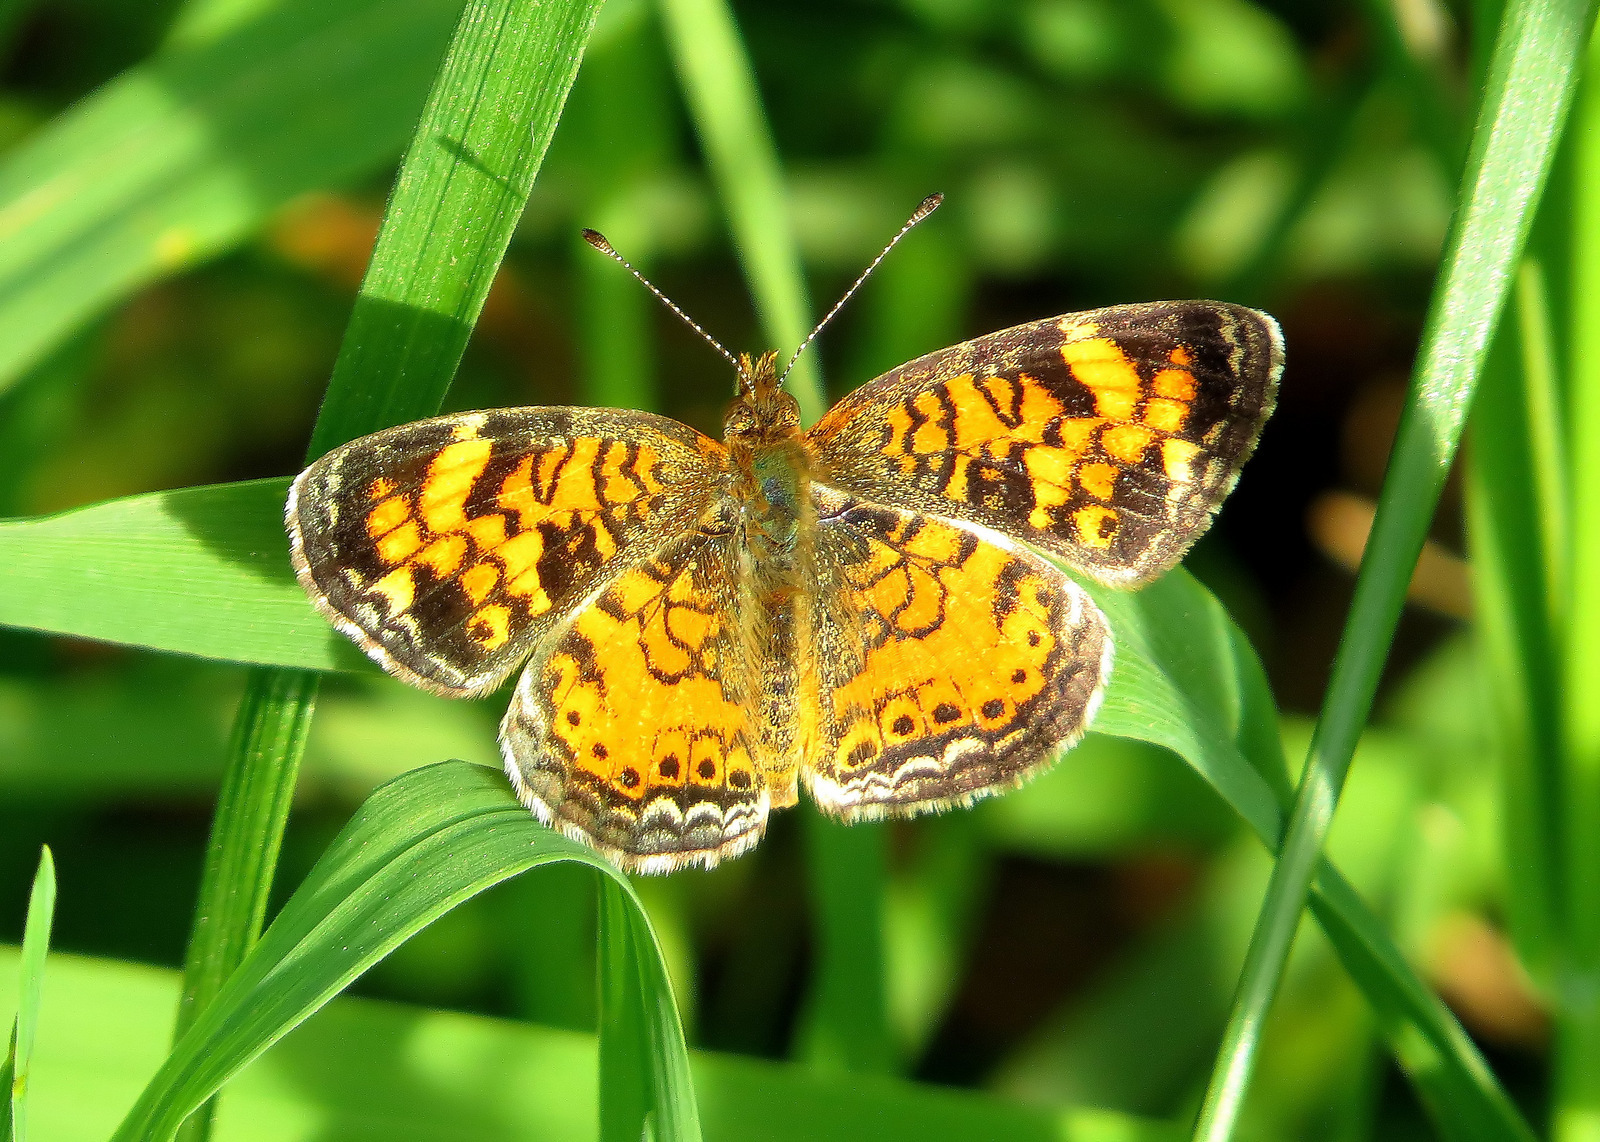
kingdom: Animalia
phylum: Arthropoda
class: Insecta
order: Lepidoptera
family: Nymphalidae
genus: Phyciodes
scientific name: Phyciodes tharos
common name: Pearl crescent
